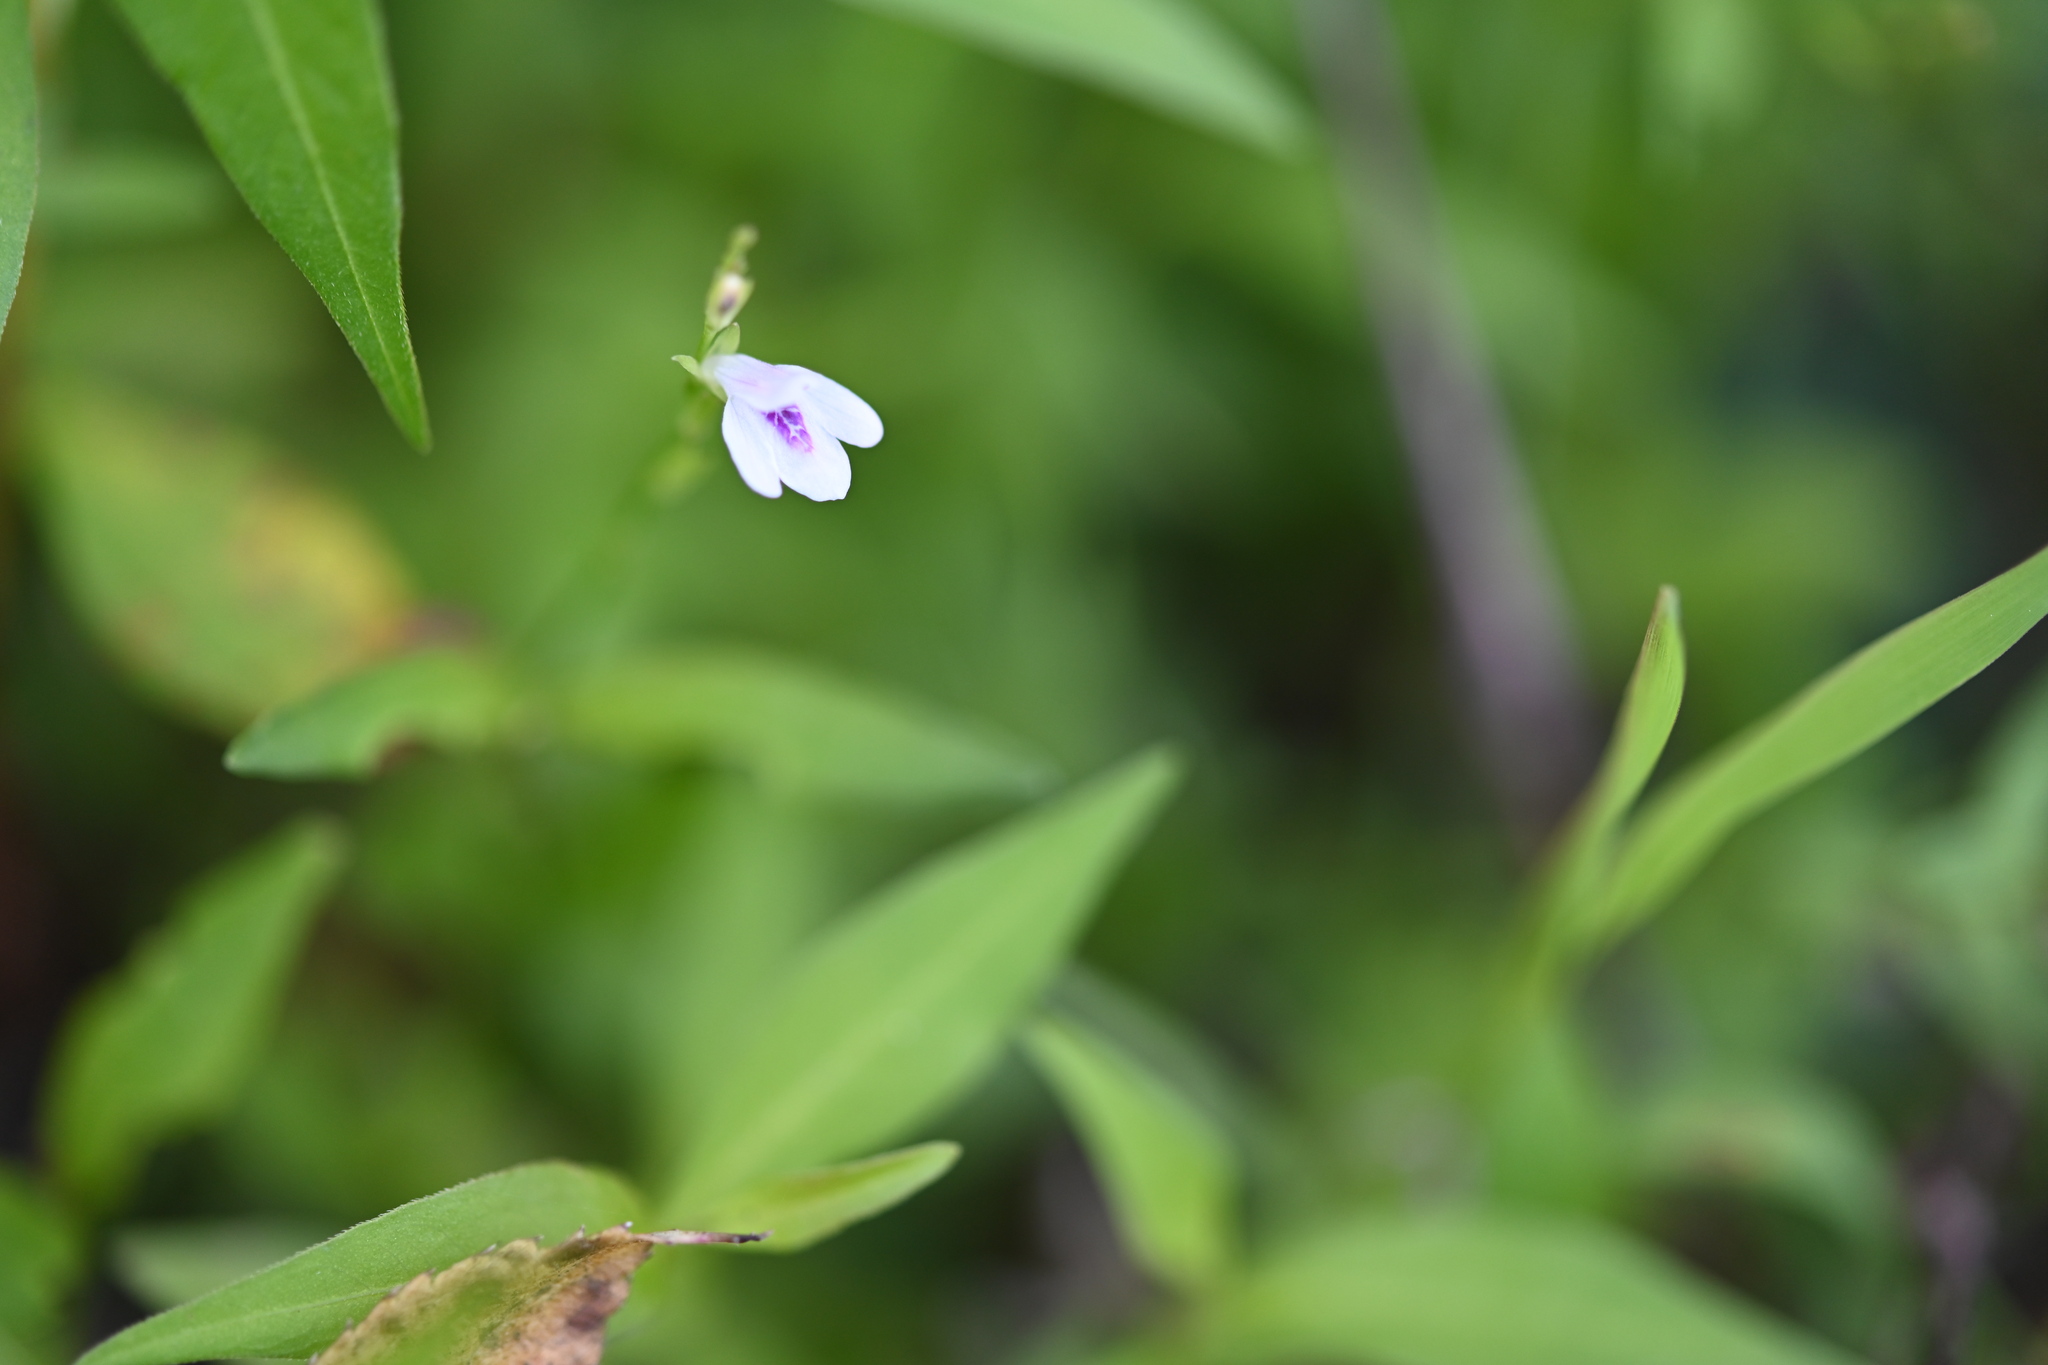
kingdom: Plantae
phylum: Tracheophyta
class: Magnoliopsida
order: Lamiales
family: Acanthaceae
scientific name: Acanthaceae
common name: Acanthaceae
